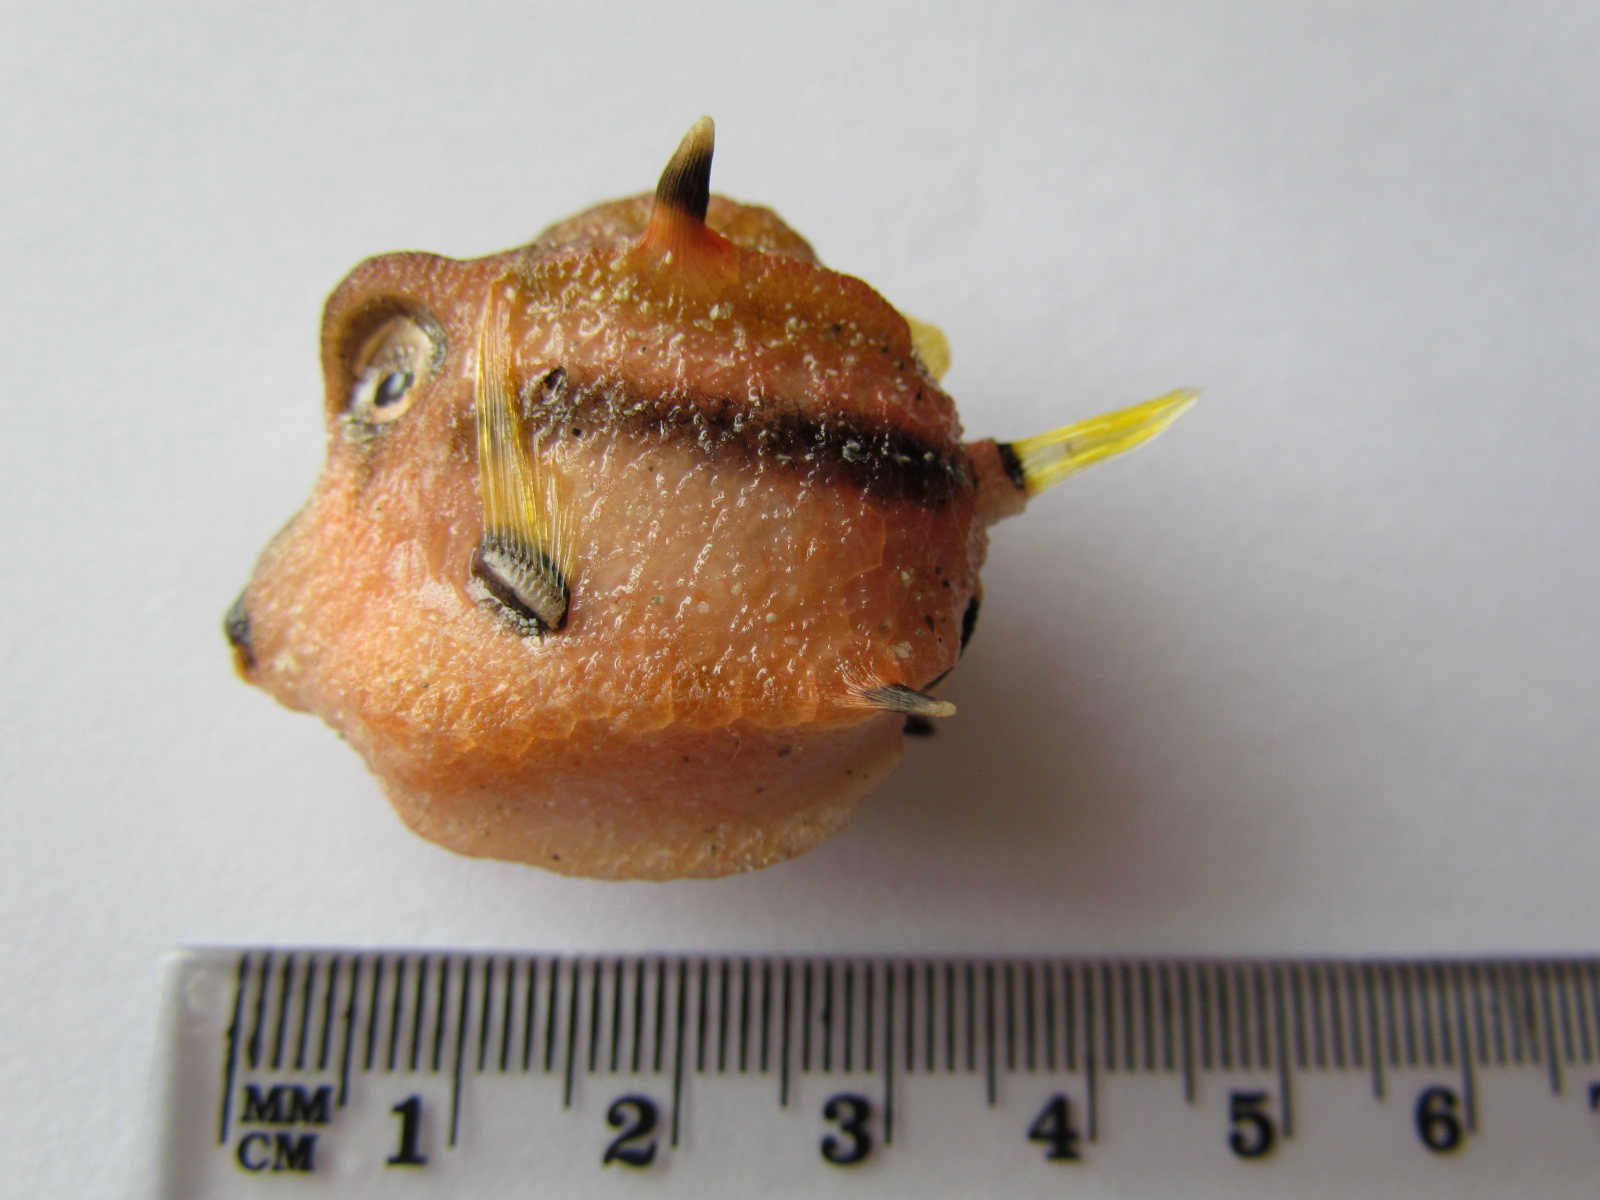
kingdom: Animalia
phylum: Chordata
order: Tetraodontiformes
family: Aracanidae
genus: Capropygia
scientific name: Capropygia unistriata
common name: Black-banded pygmy boxfish
